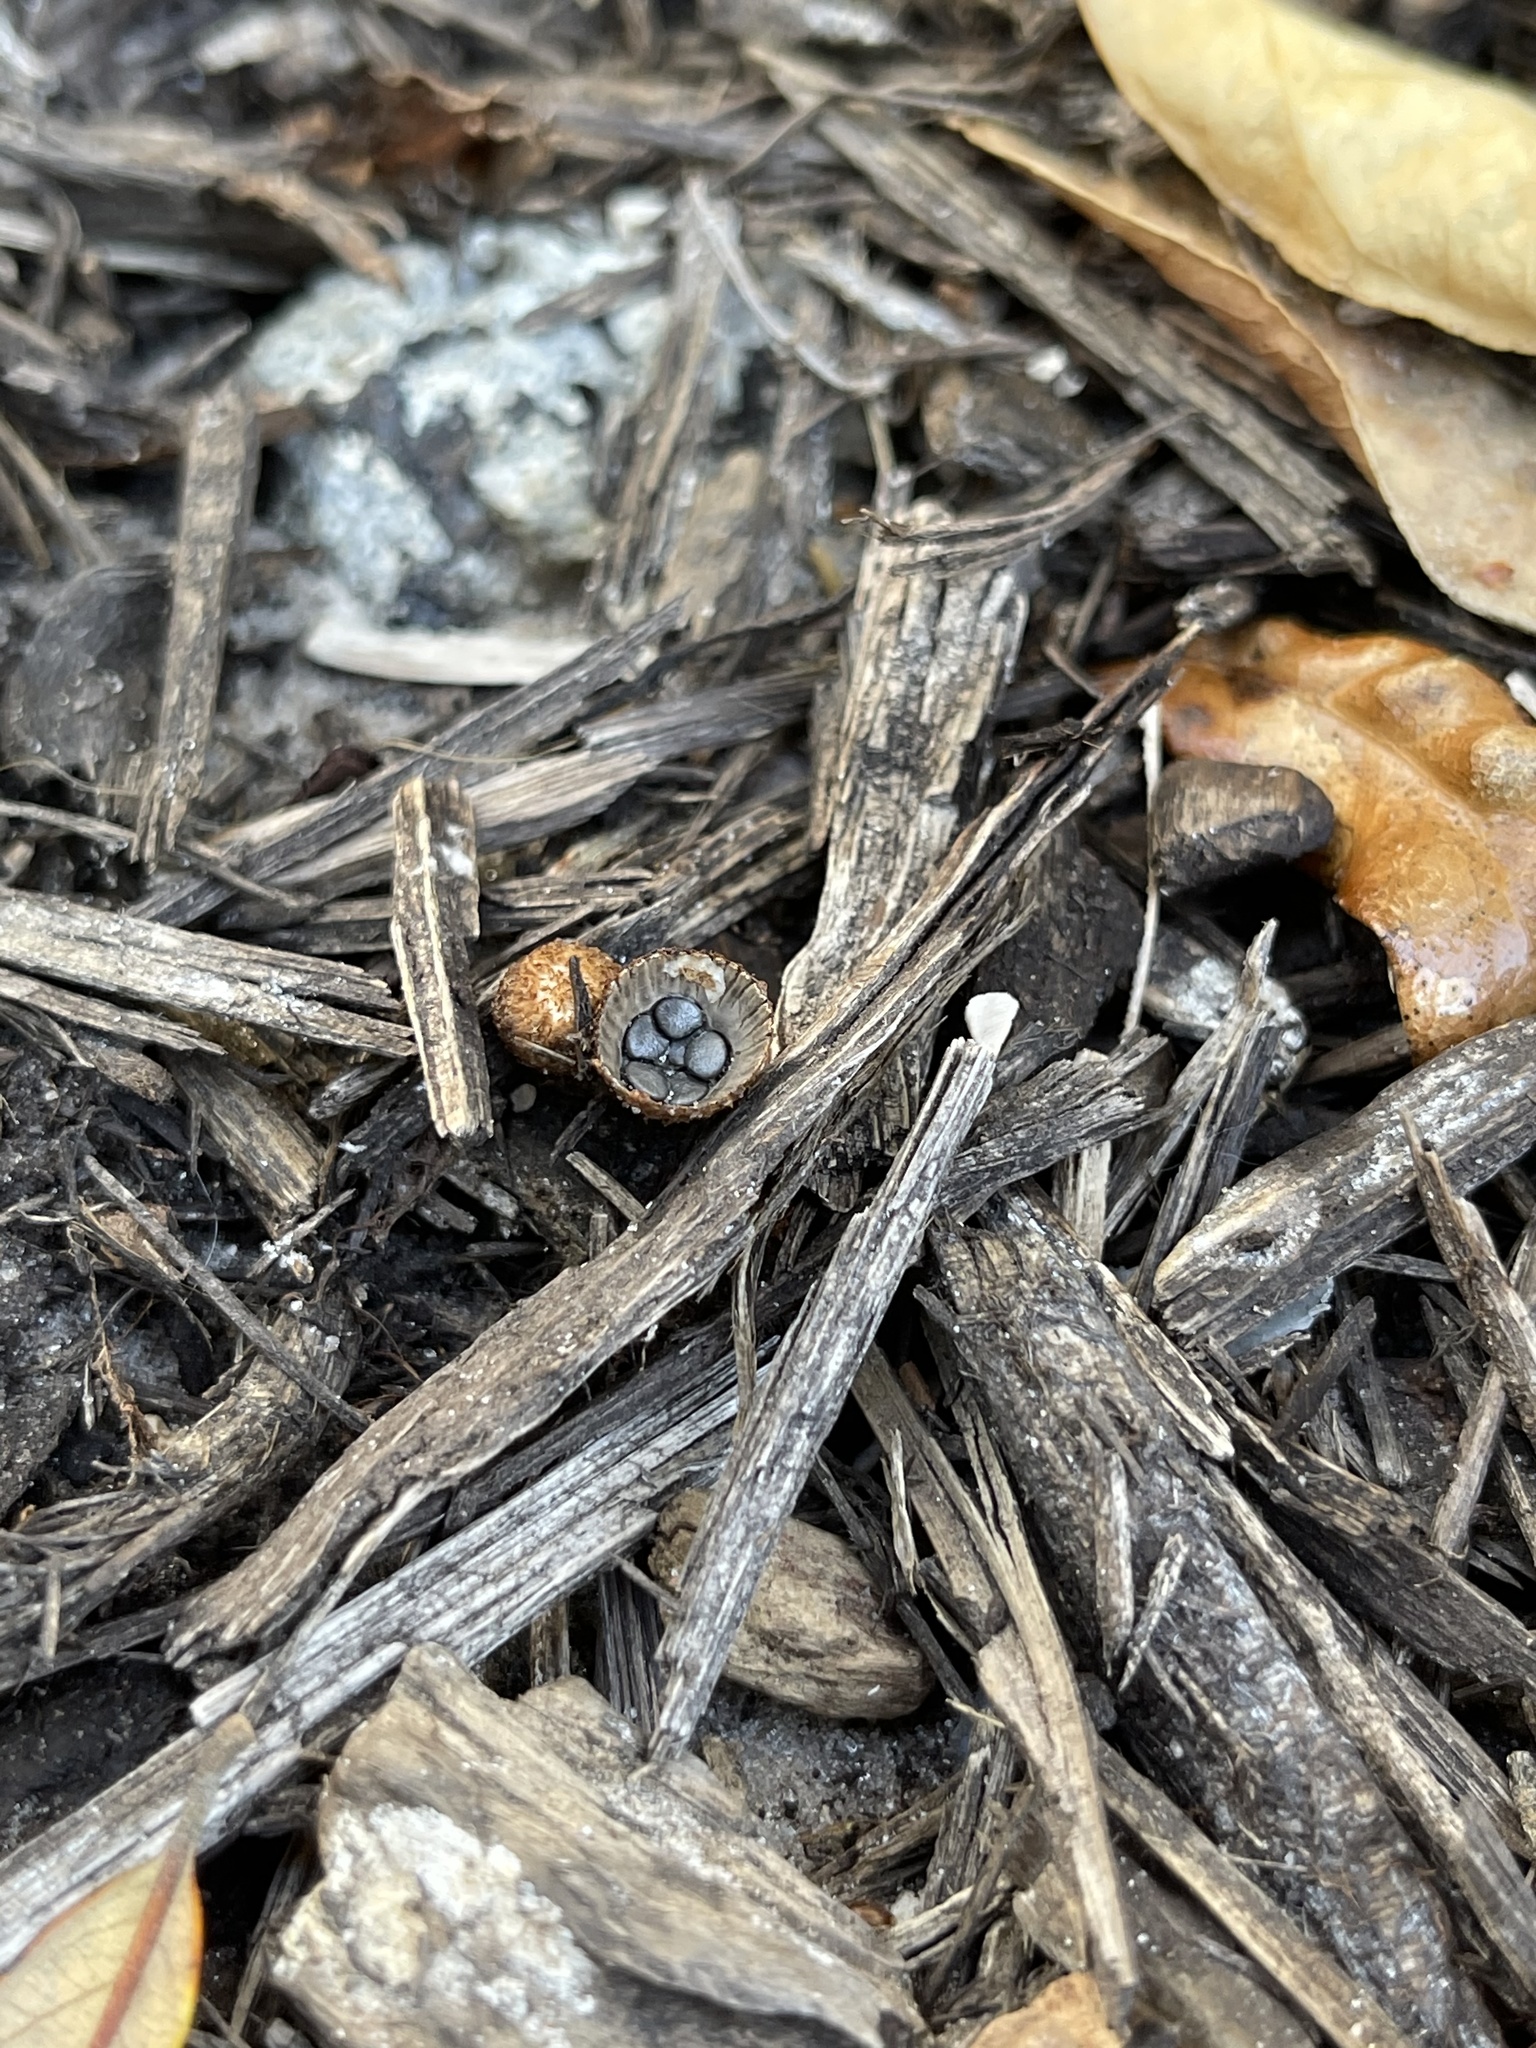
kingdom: Fungi
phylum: Basidiomycota
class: Agaricomycetes
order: Agaricales
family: Agaricaceae
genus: Cyathus
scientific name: Cyathus striatus
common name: Fluted bird's nest
